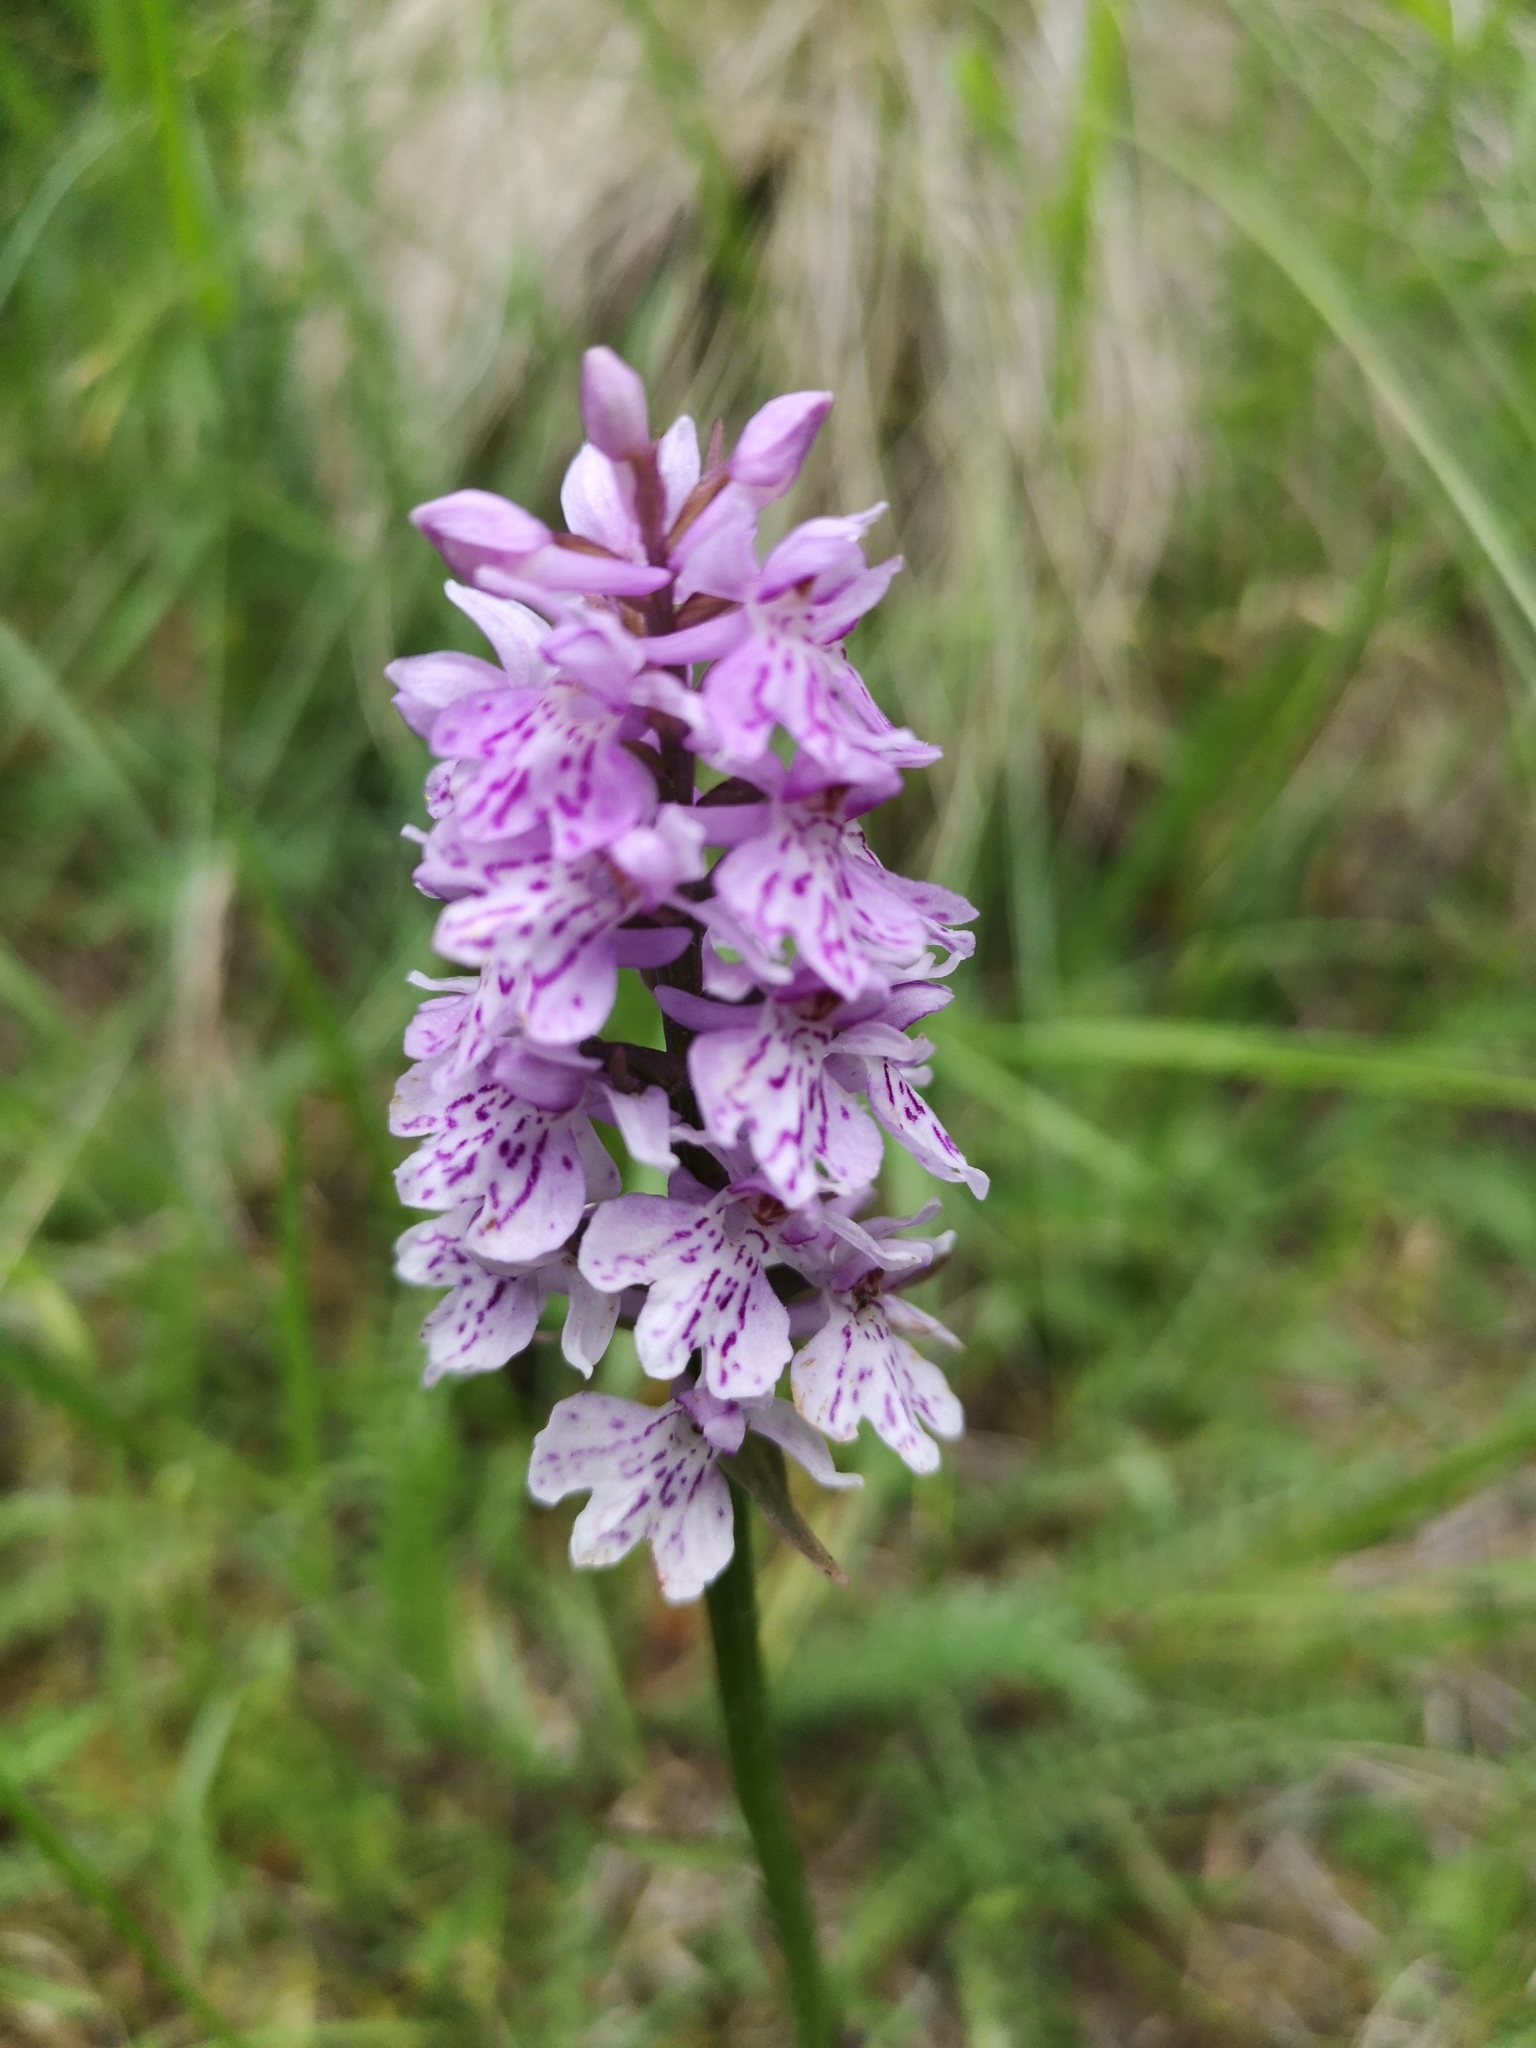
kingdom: Plantae
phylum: Tracheophyta
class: Liliopsida
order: Asparagales
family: Orchidaceae
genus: Dactylorhiza
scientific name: Dactylorhiza maculata
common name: Heath spotted-orchid
